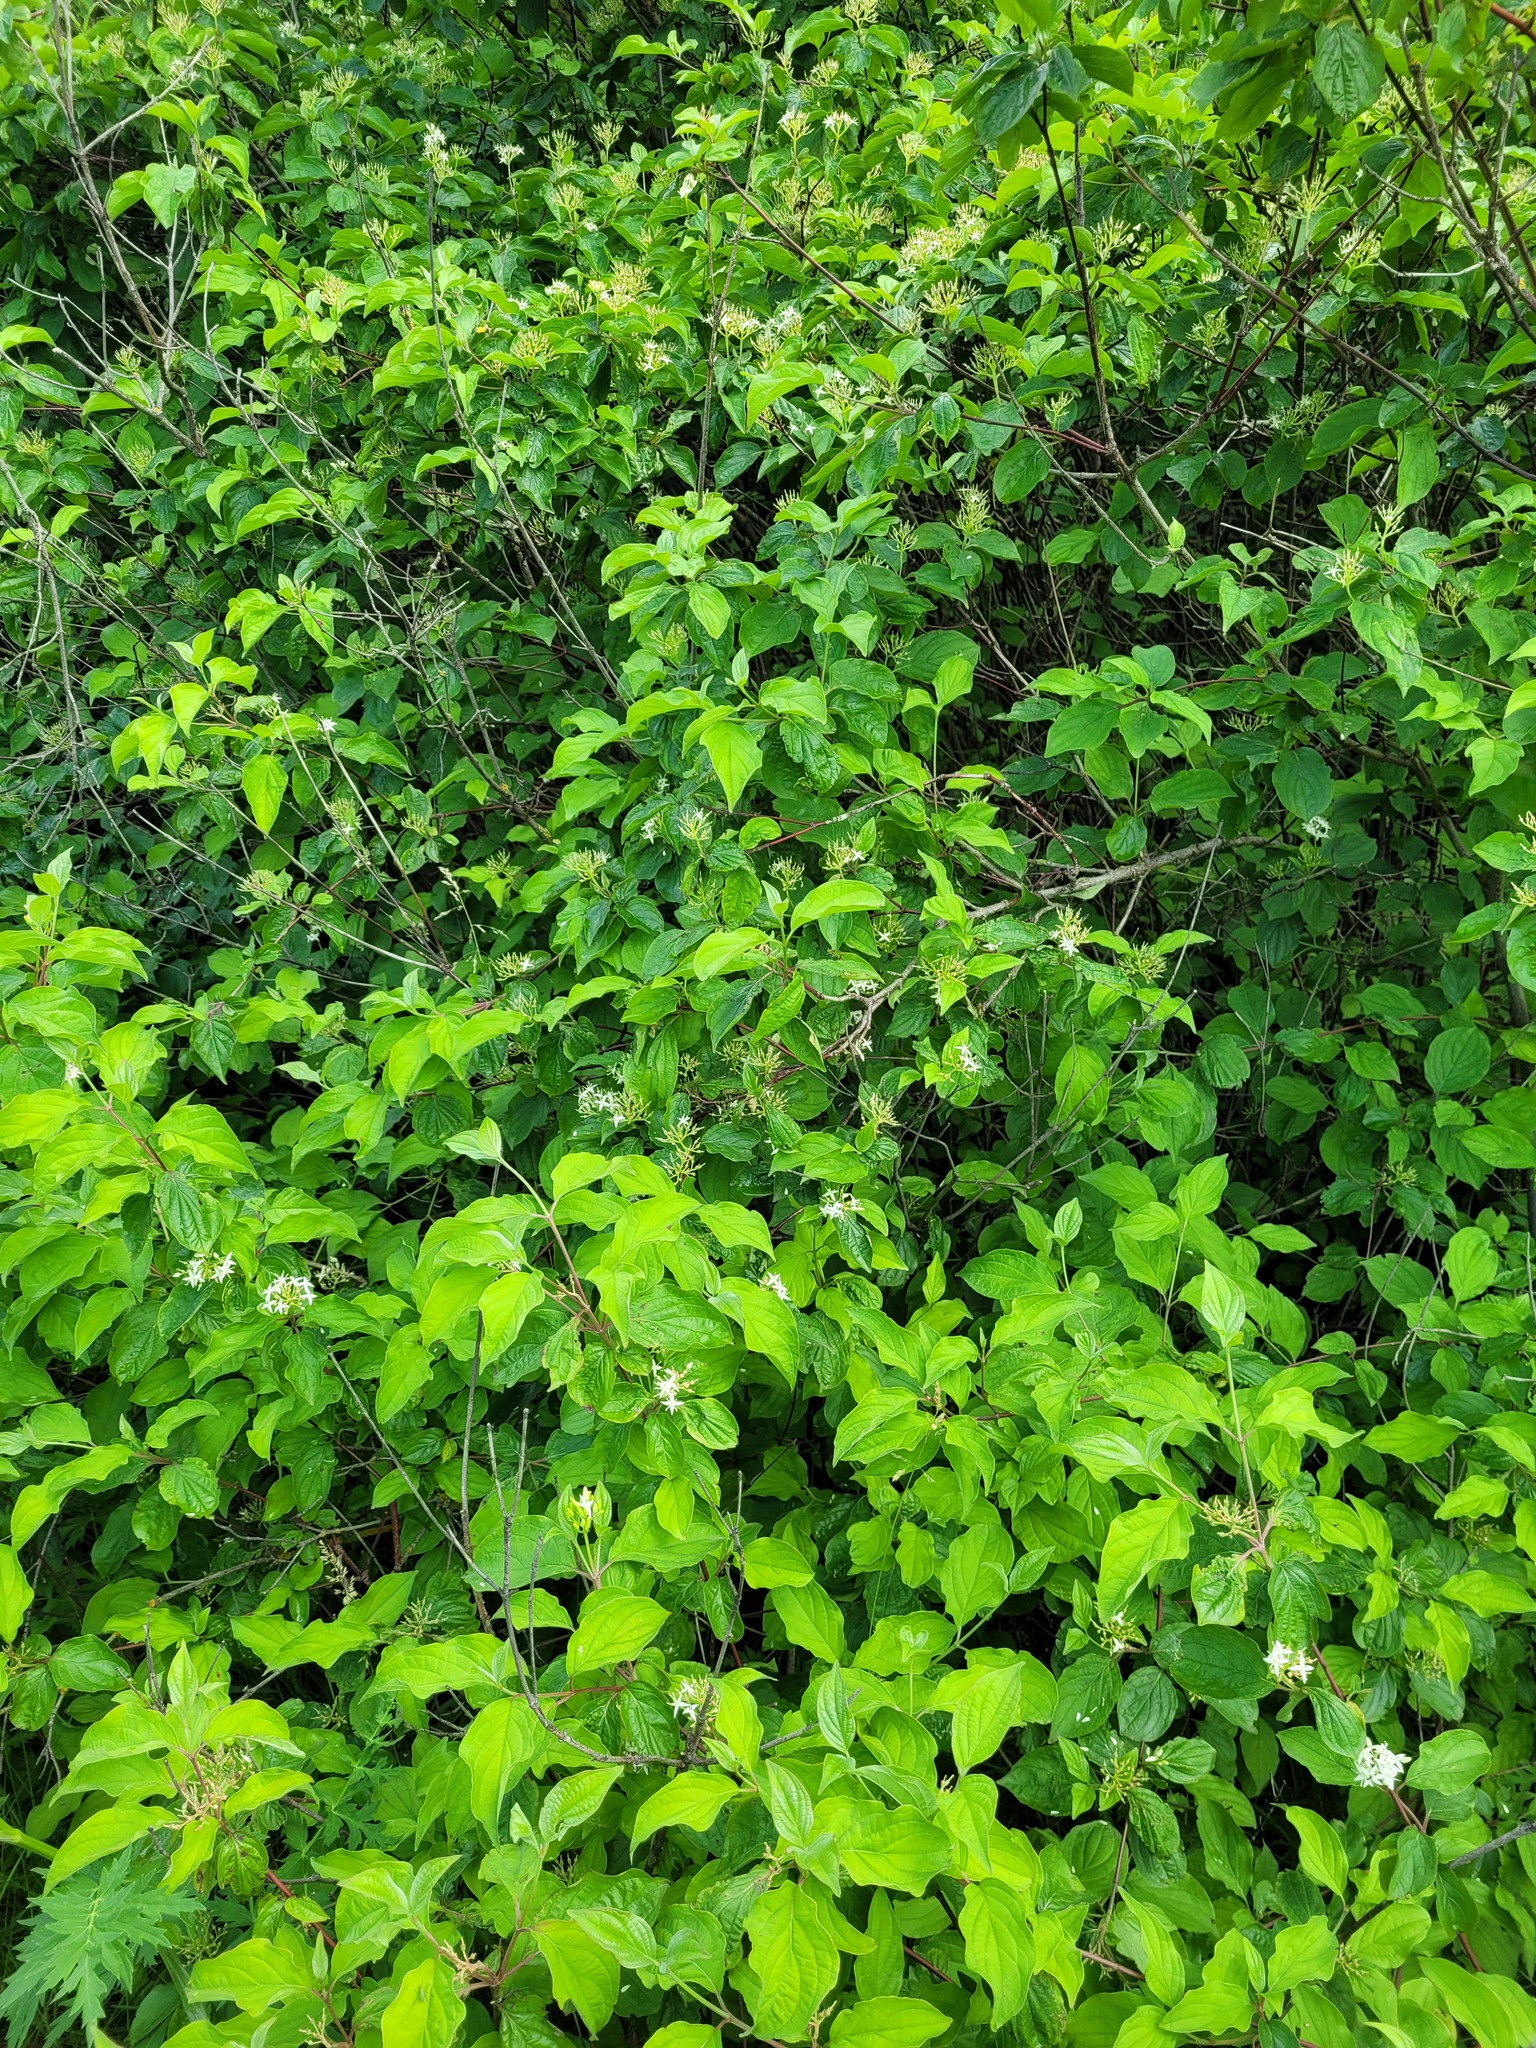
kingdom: Plantae
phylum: Tracheophyta
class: Magnoliopsida
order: Cornales
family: Cornaceae
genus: Cornus
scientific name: Cornus sanguinea
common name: Dogwood
